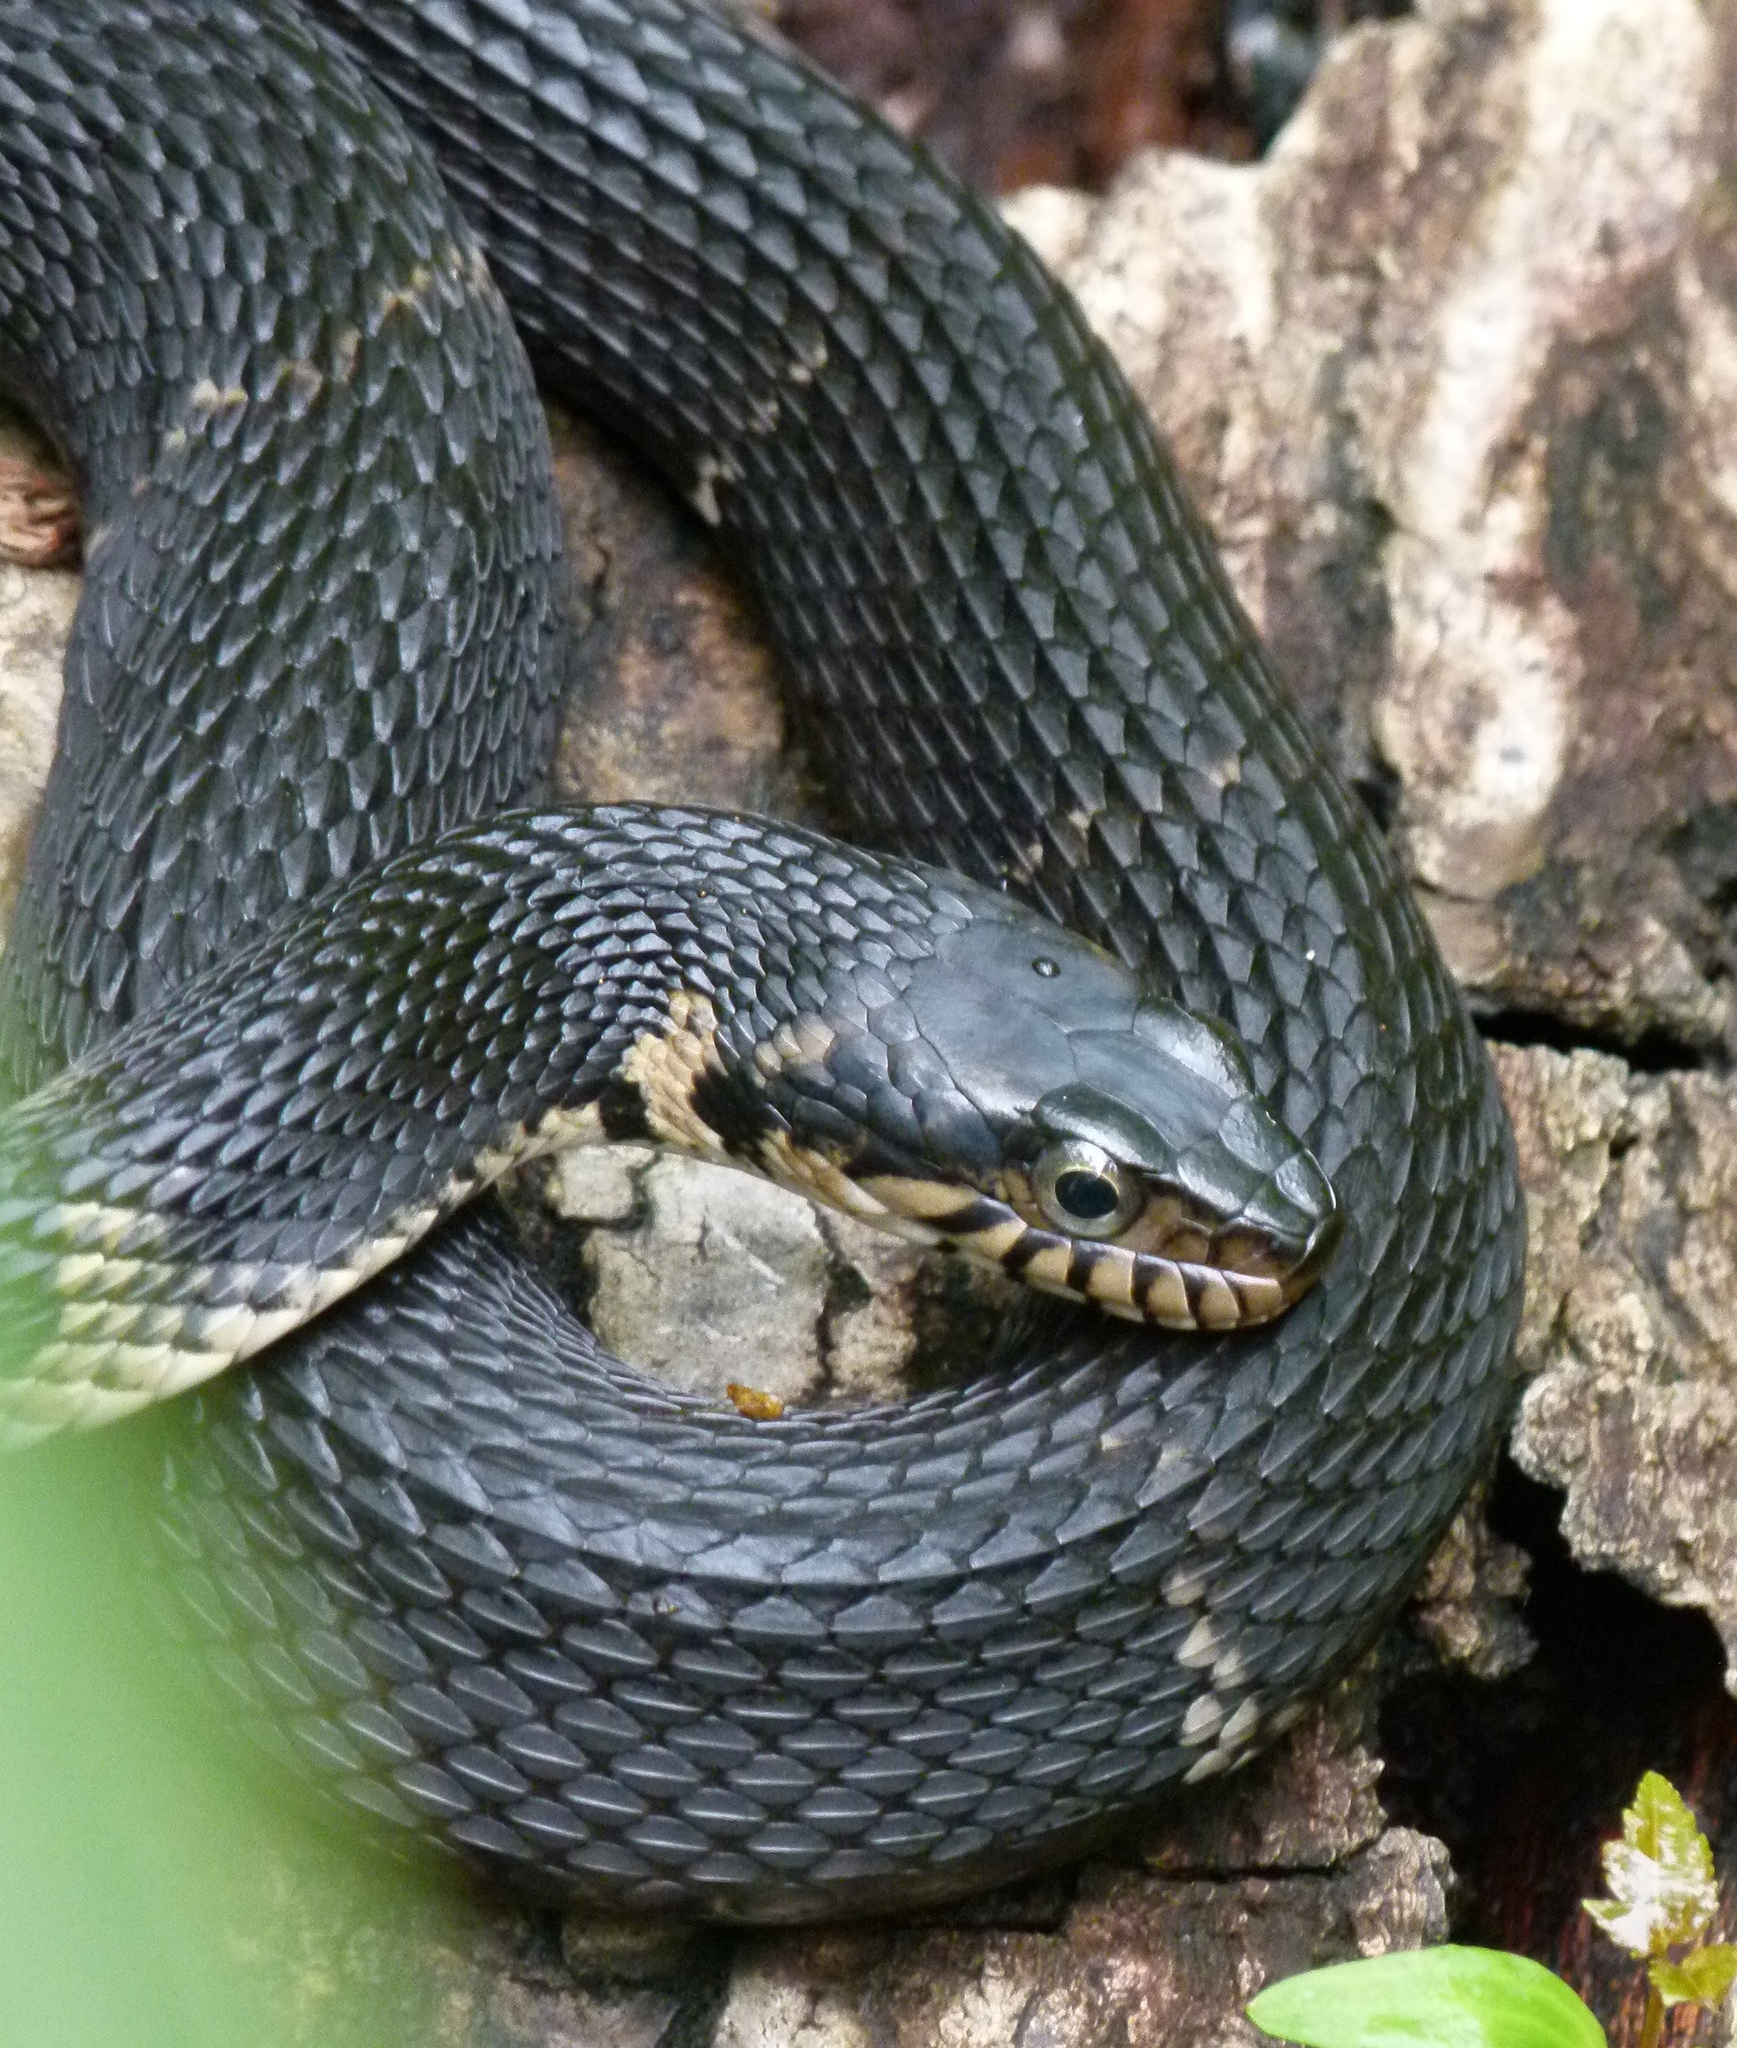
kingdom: Animalia
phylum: Chordata
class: Squamata
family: Colubridae
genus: Nerodia
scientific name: Nerodia fasciata
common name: Southern water snake
